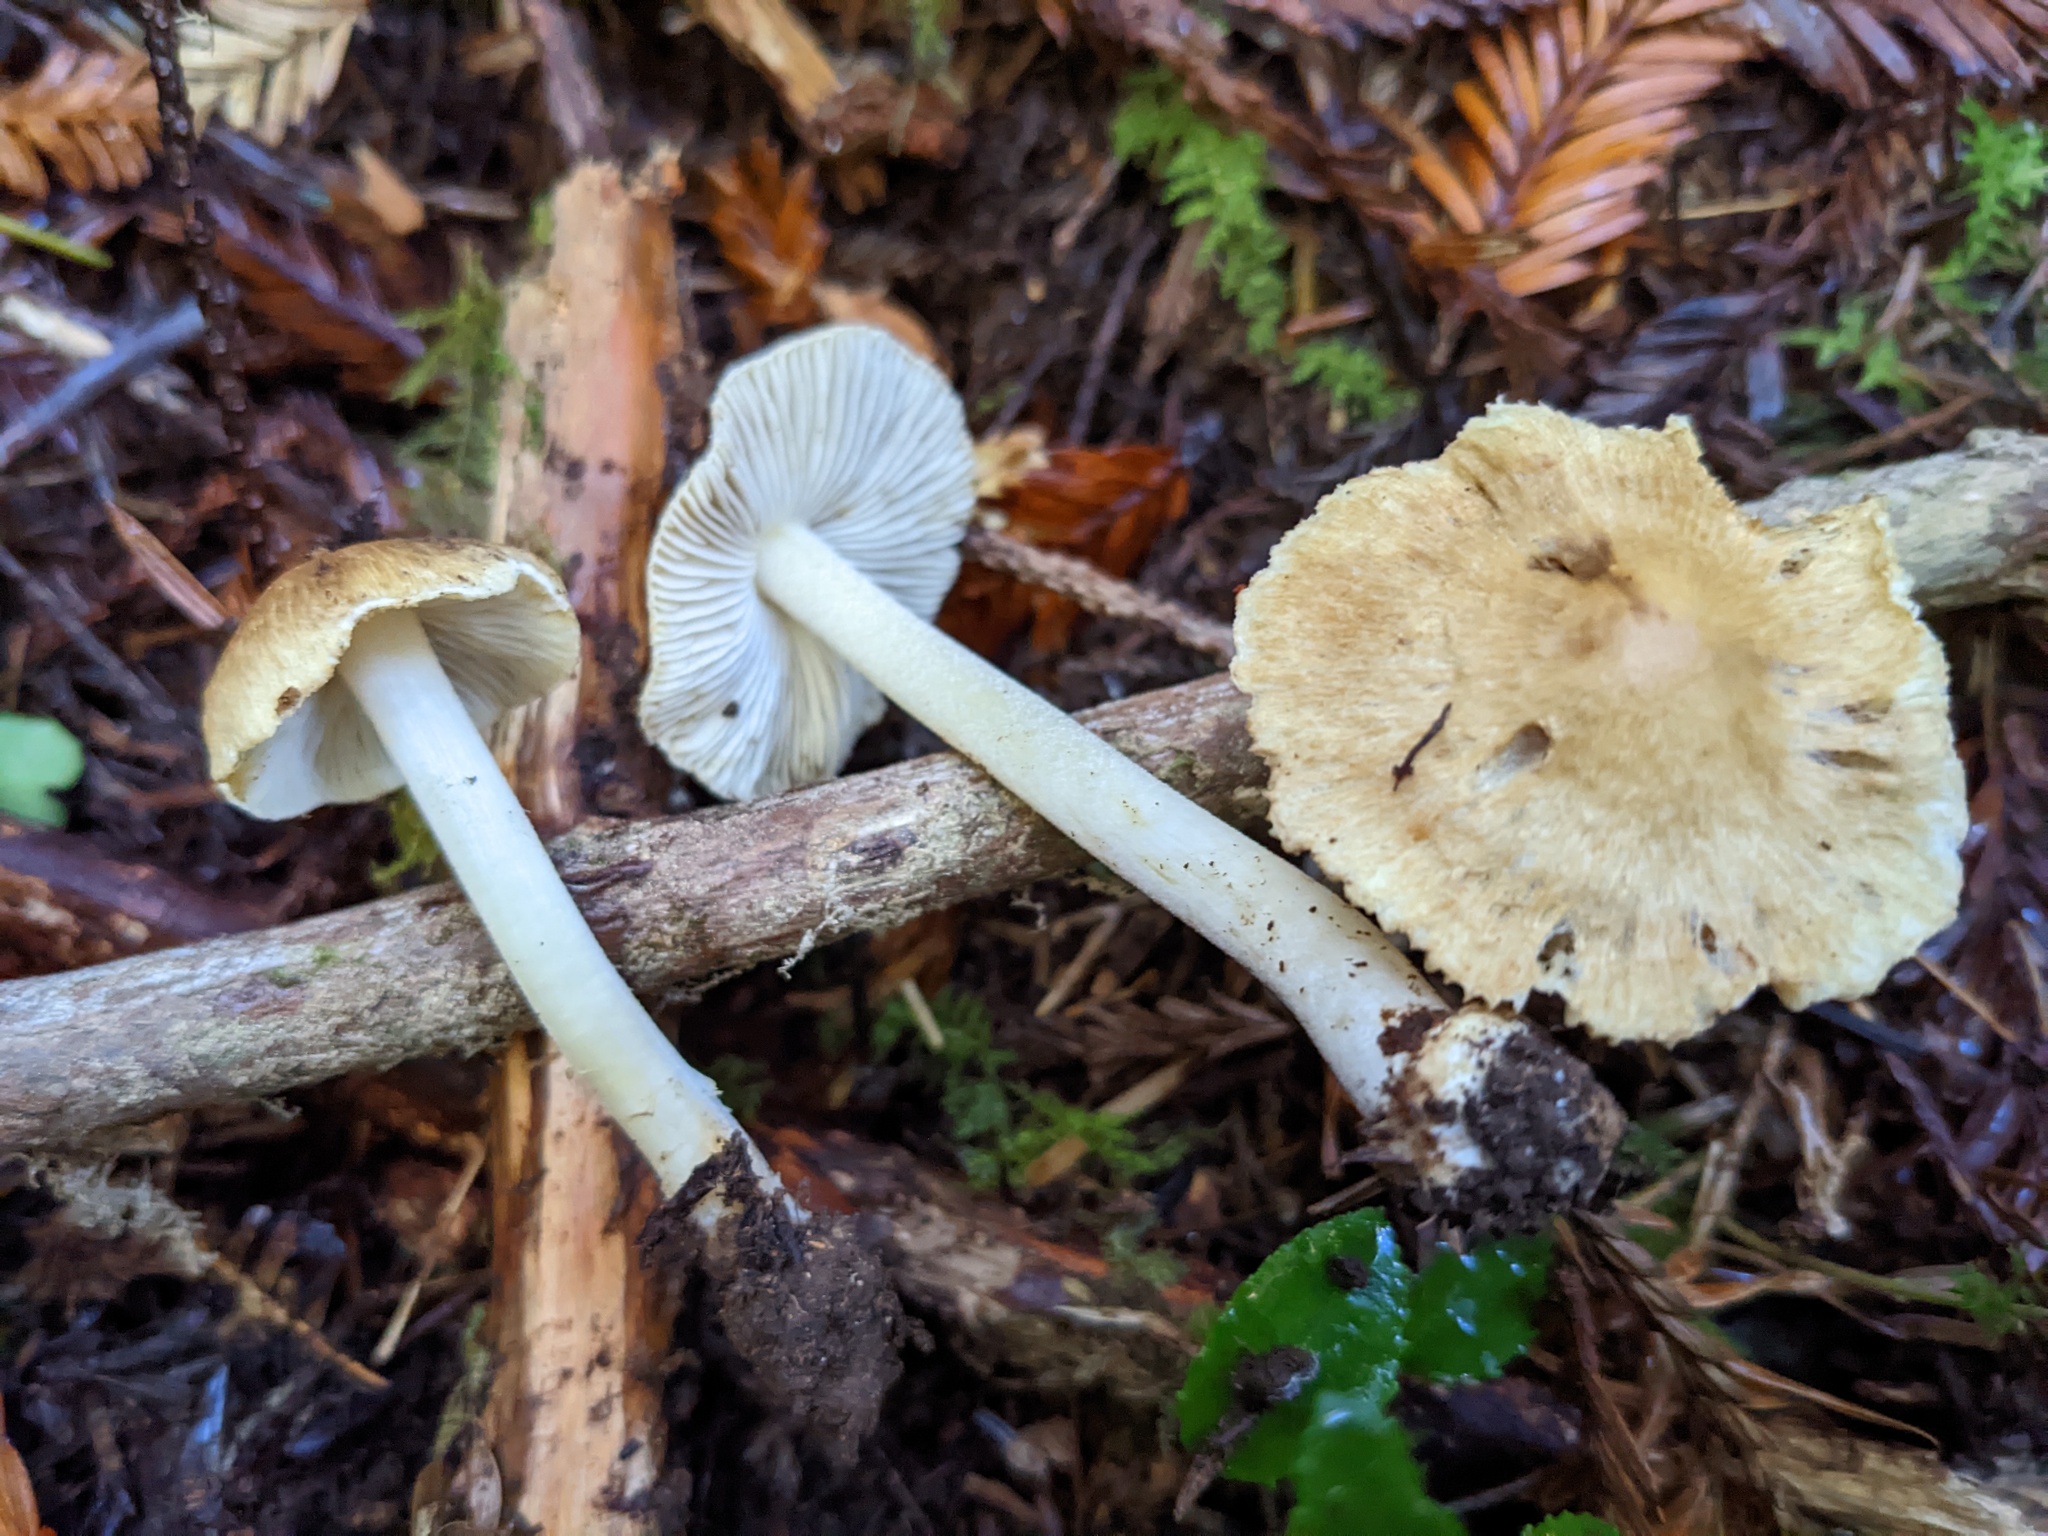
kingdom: Fungi
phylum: Basidiomycota
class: Agaricomycetes
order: Agaricales
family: Inocybaceae
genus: Pseudosperma
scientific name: Pseudosperma sororium
